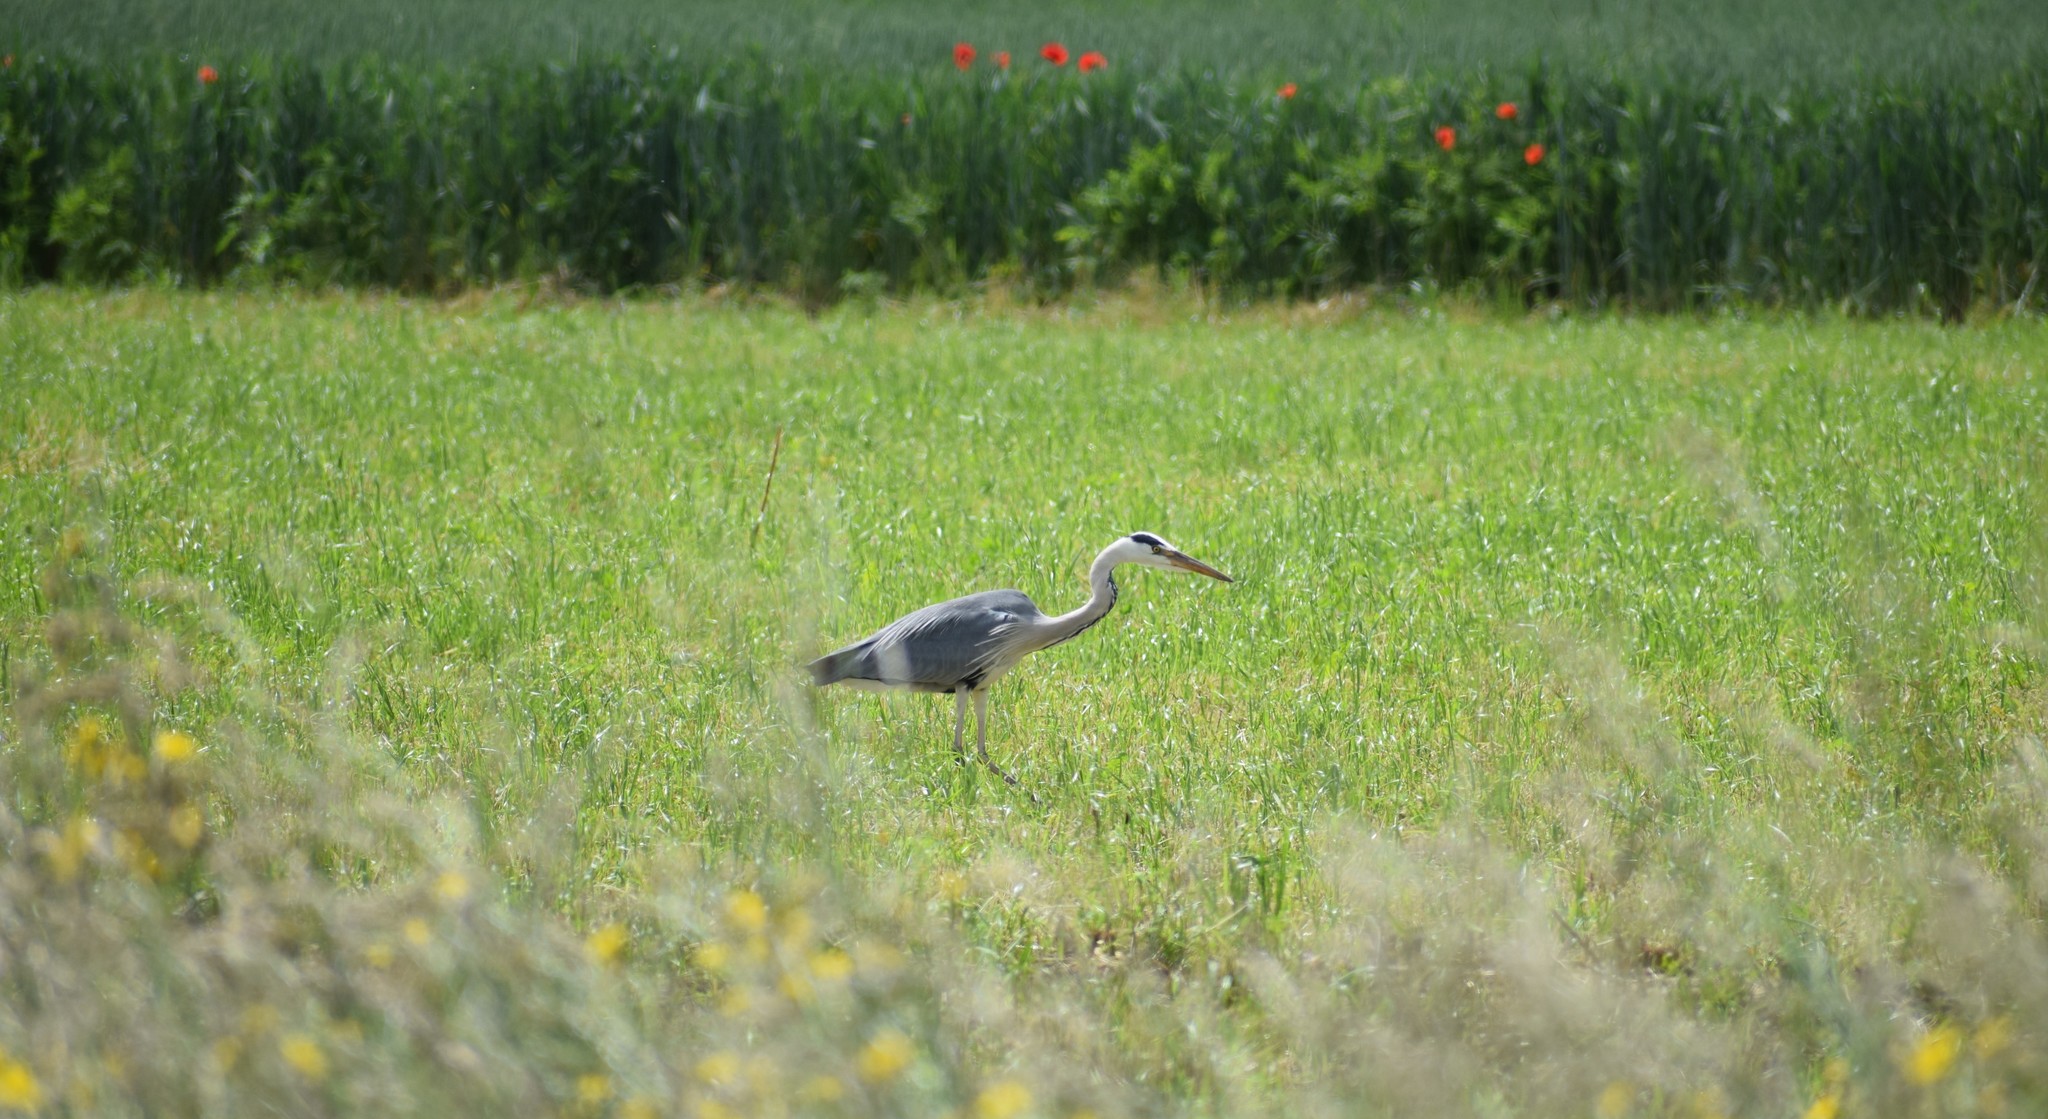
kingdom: Animalia
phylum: Chordata
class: Aves
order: Pelecaniformes
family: Ardeidae
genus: Ardea
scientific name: Ardea cinerea
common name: Grey heron
